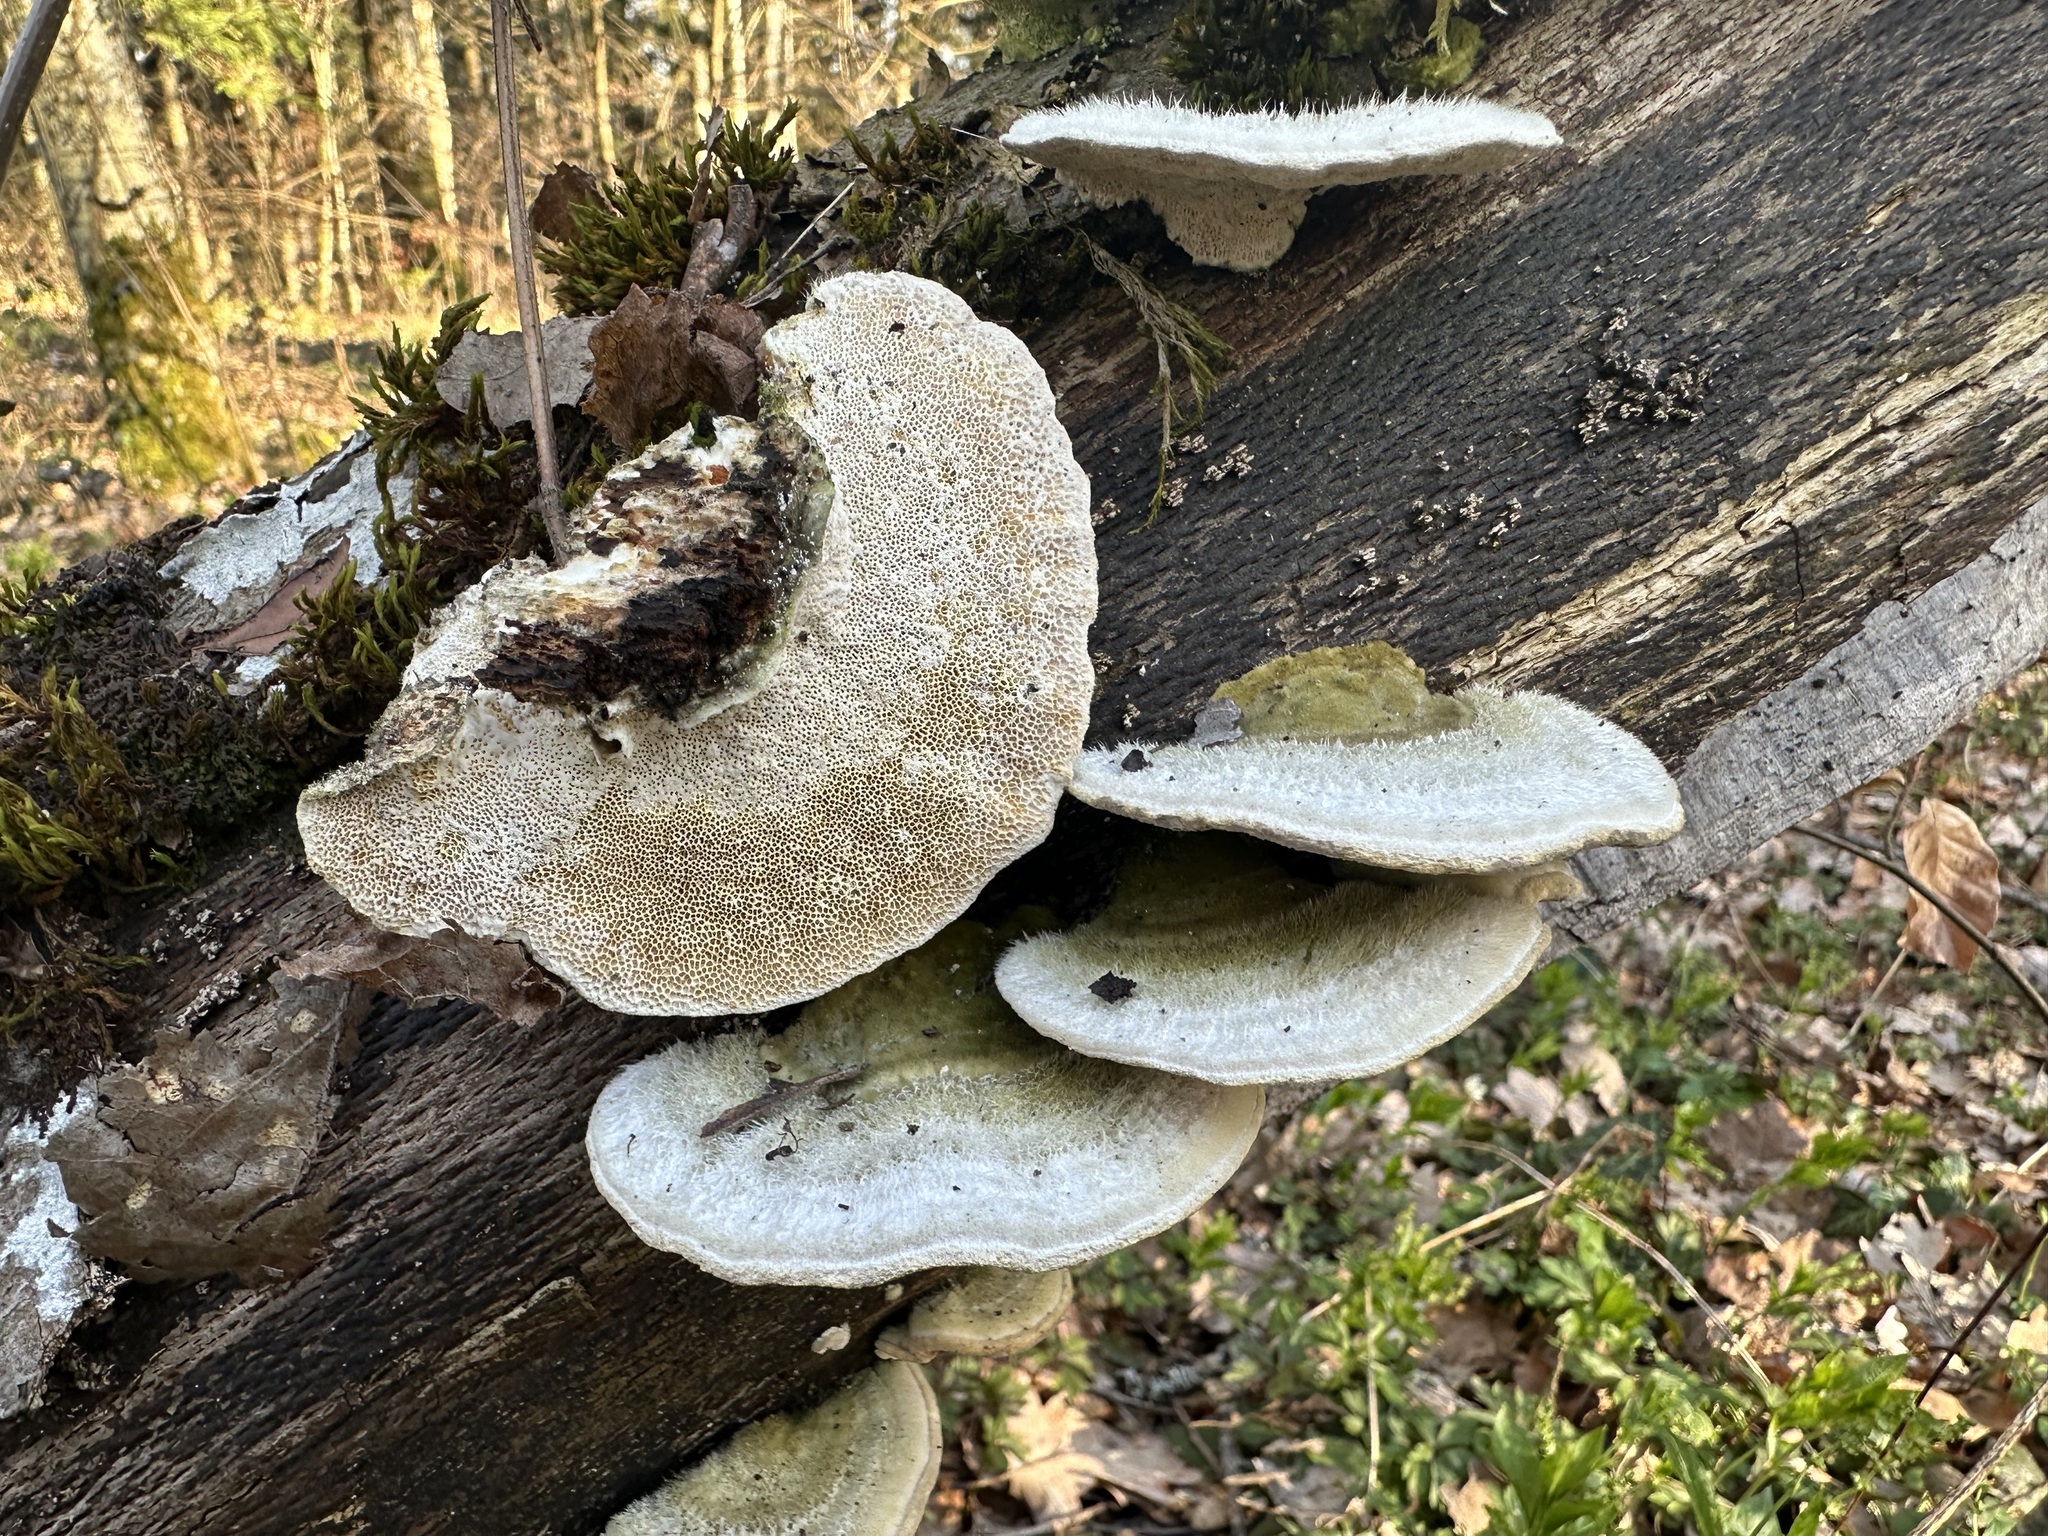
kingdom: Fungi
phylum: Basidiomycota
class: Agaricomycetes
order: Polyporales
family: Polyporaceae
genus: Trametes
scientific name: Trametes hirsuta
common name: Hairy bracket
